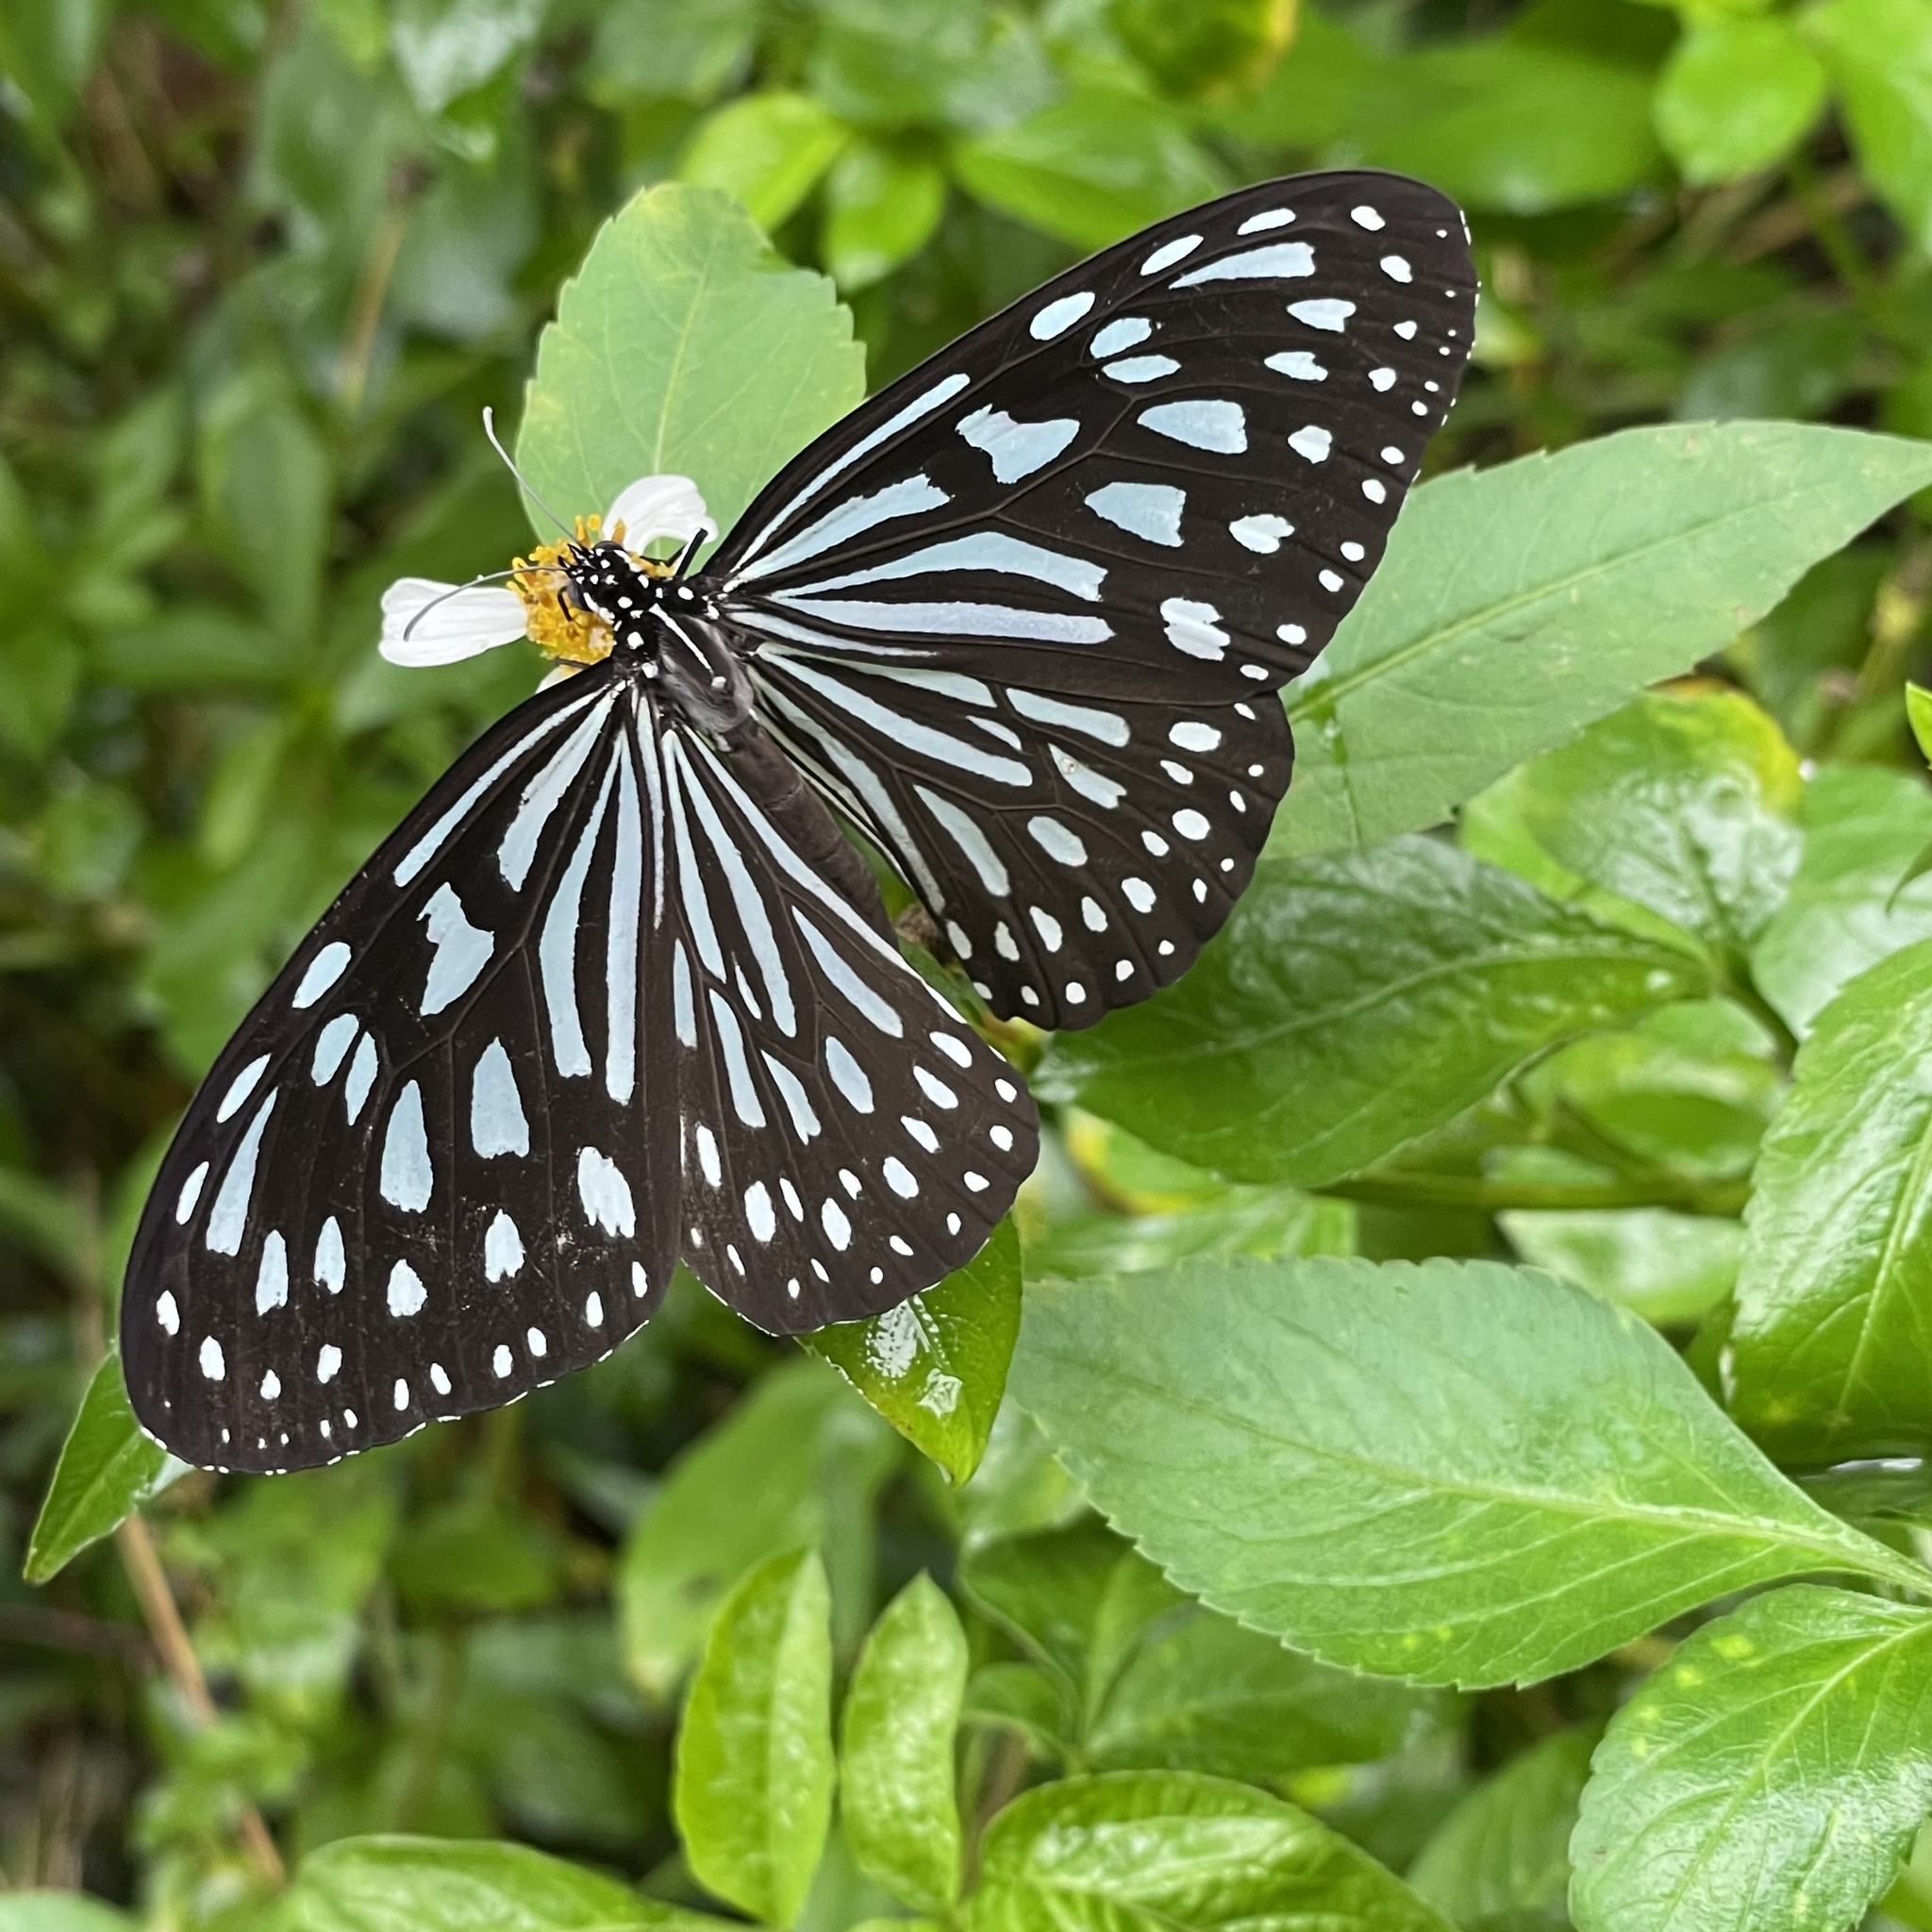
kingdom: Animalia
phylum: Arthropoda
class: Insecta
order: Lepidoptera
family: Nymphalidae
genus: Ideopsis
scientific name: Ideopsis similis
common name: Ceylon blue glassy tiger
